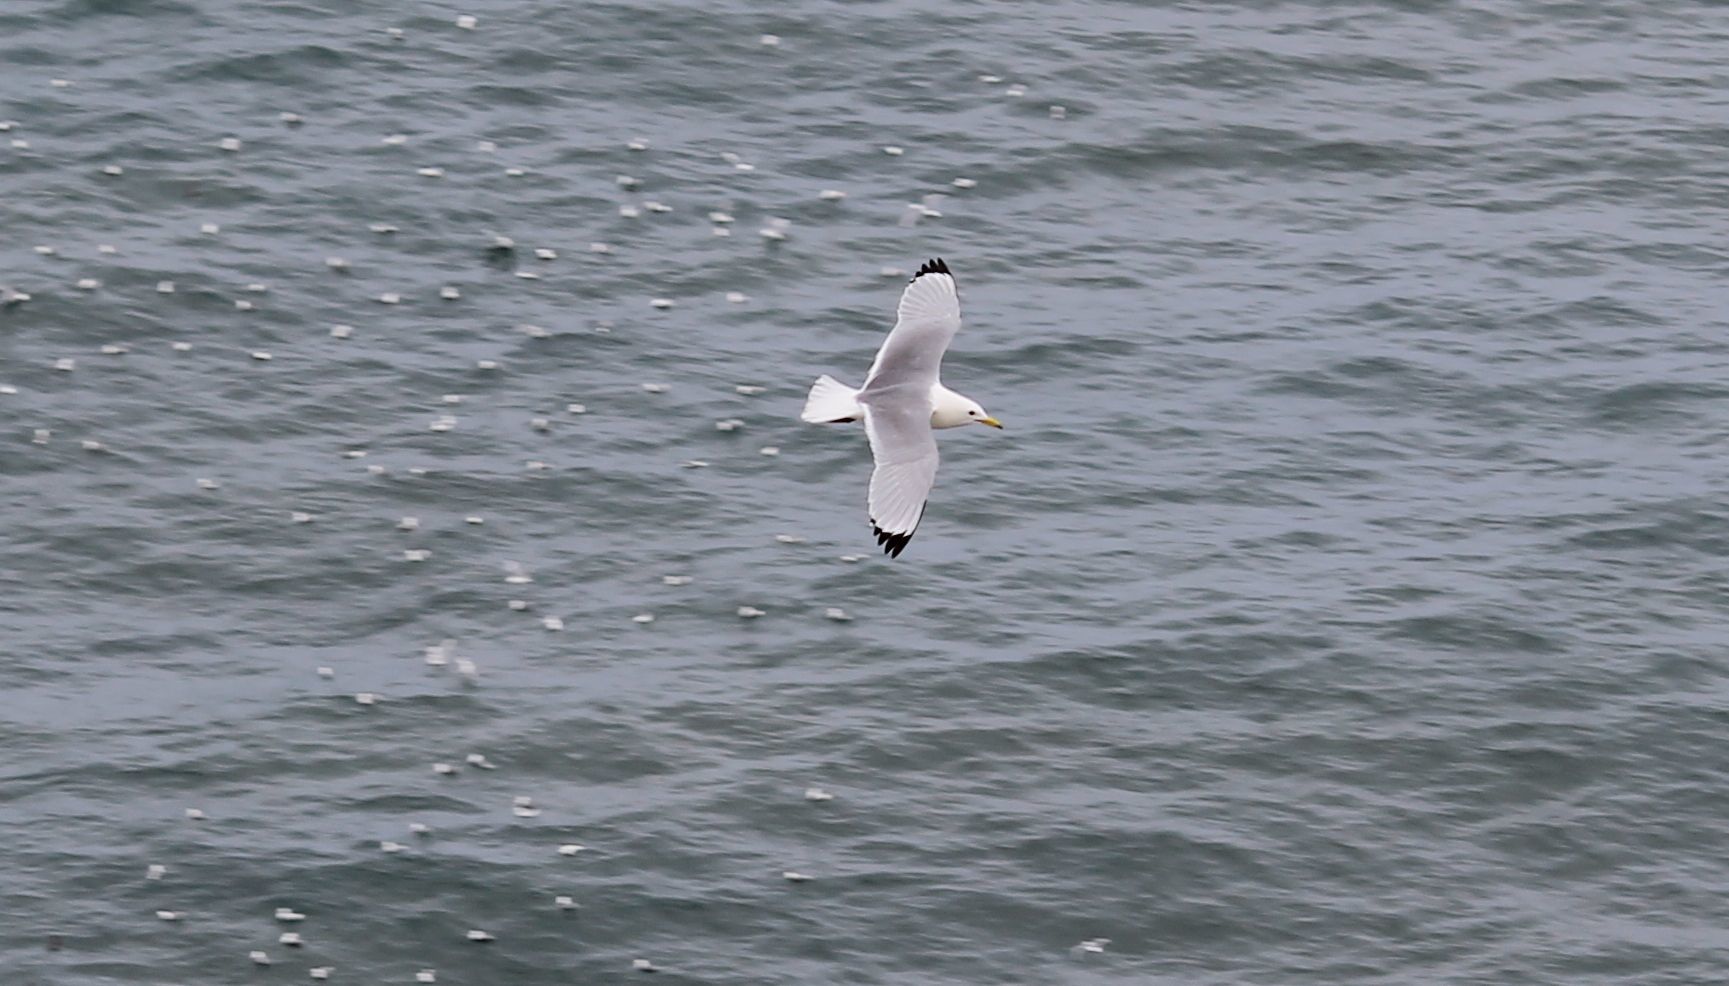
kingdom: Animalia
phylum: Chordata
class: Aves
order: Charadriiformes
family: Laridae
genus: Rissa
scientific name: Rissa tridactyla
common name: Black-legged kittiwake
